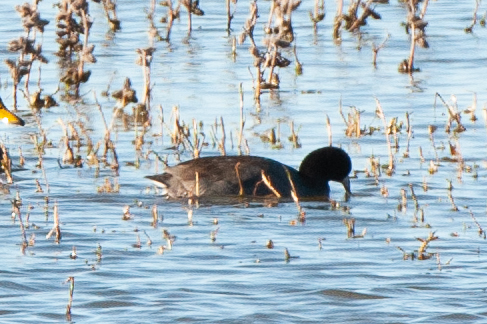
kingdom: Animalia
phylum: Chordata
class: Aves
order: Gruiformes
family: Rallidae
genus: Fulica
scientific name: Fulica americana
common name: American coot
